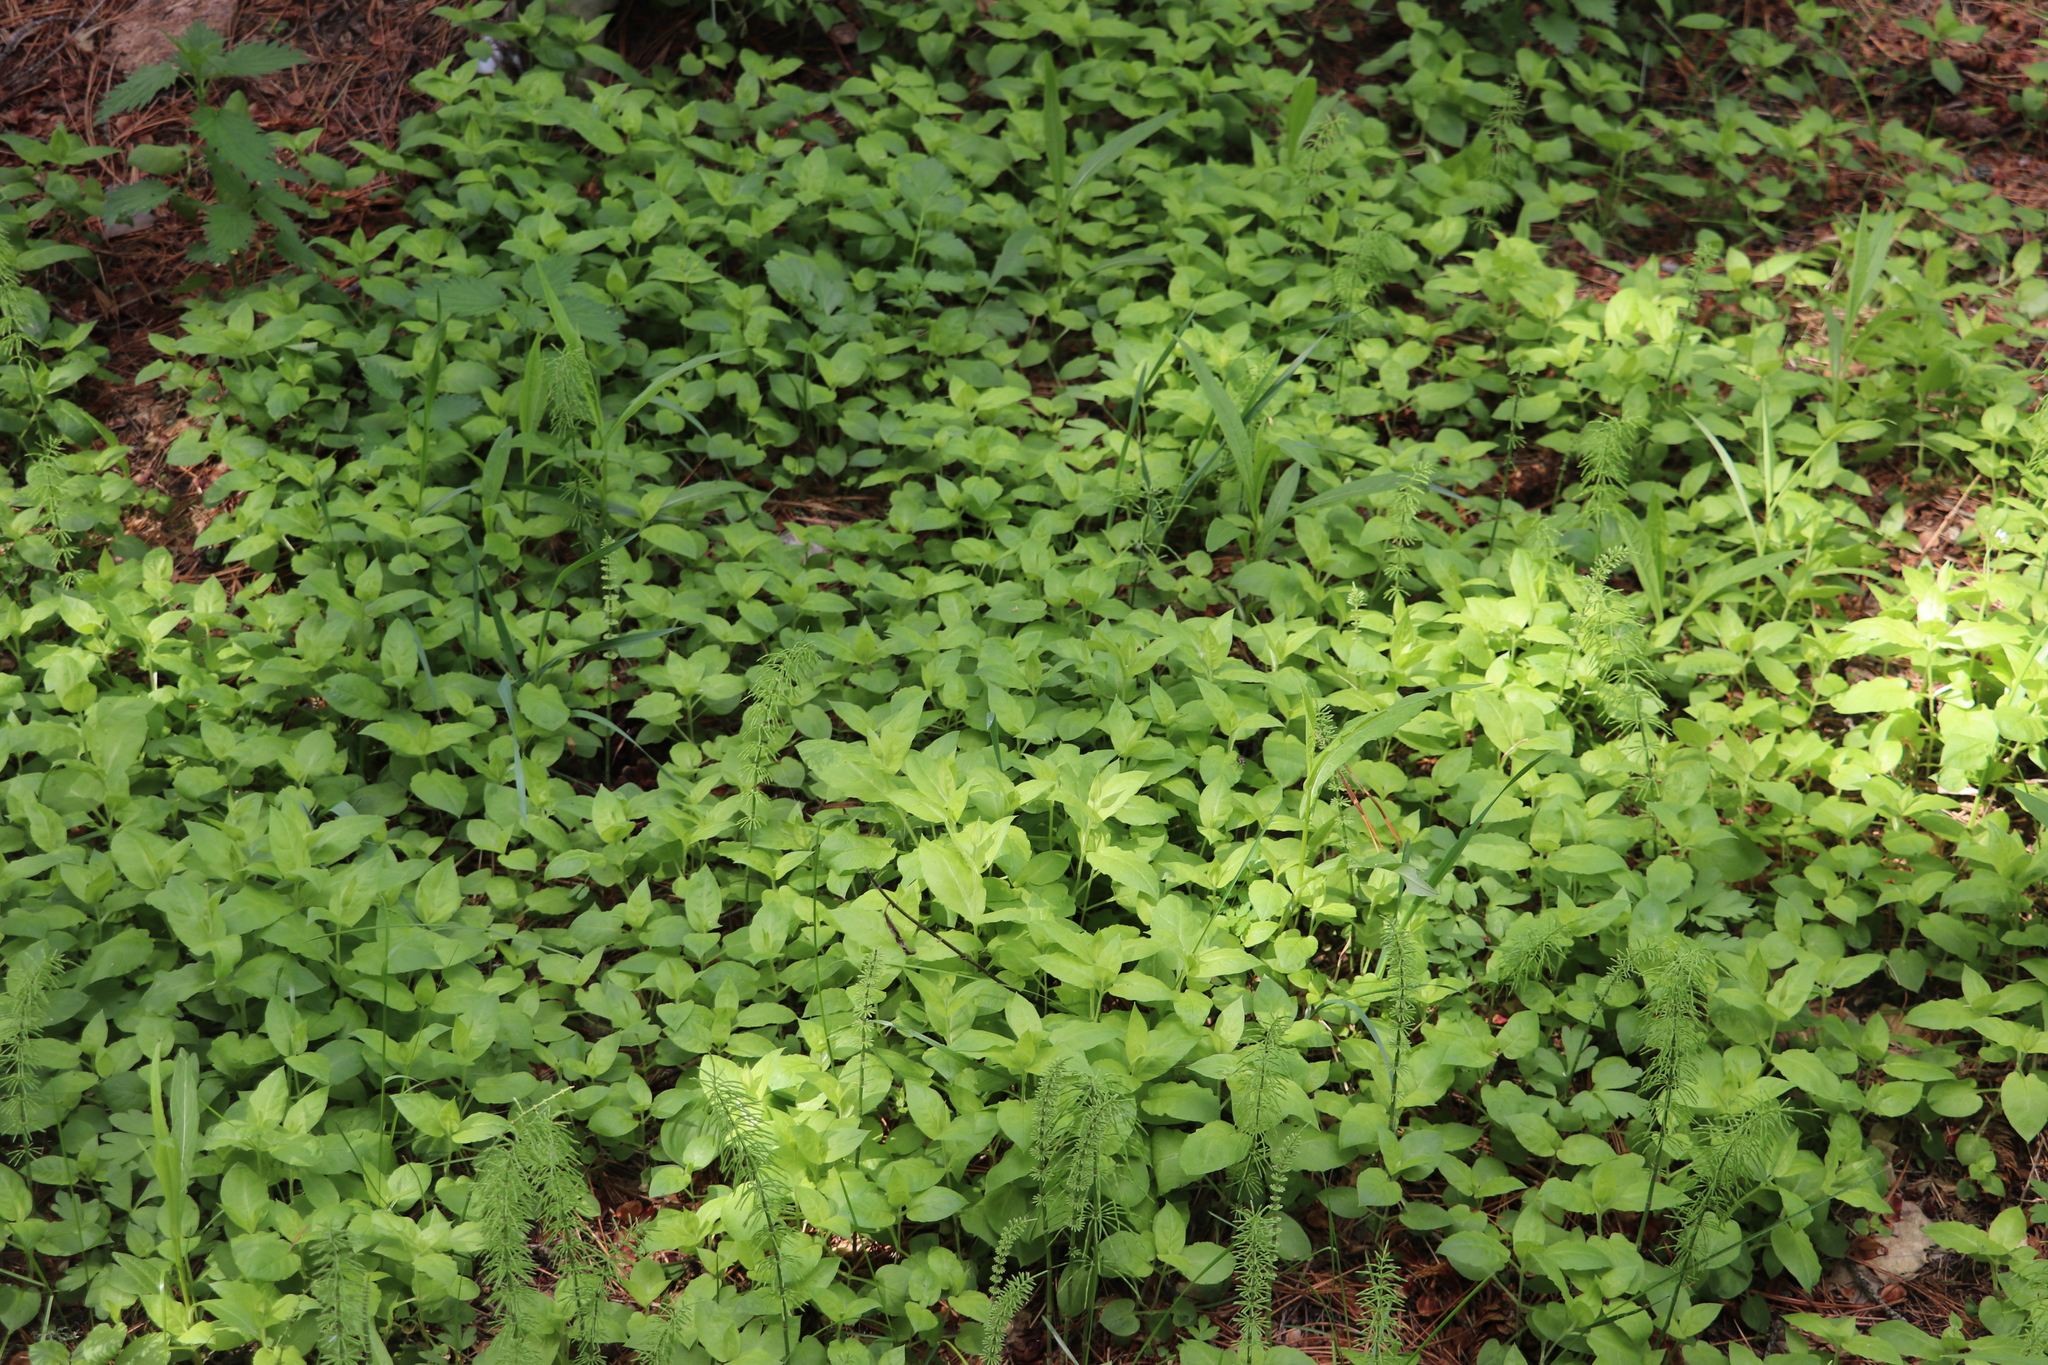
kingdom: Plantae
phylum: Tracheophyta
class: Magnoliopsida
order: Caryophyllales
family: Caryophyllaceae
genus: Stellaria
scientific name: Stellaria bungeana
